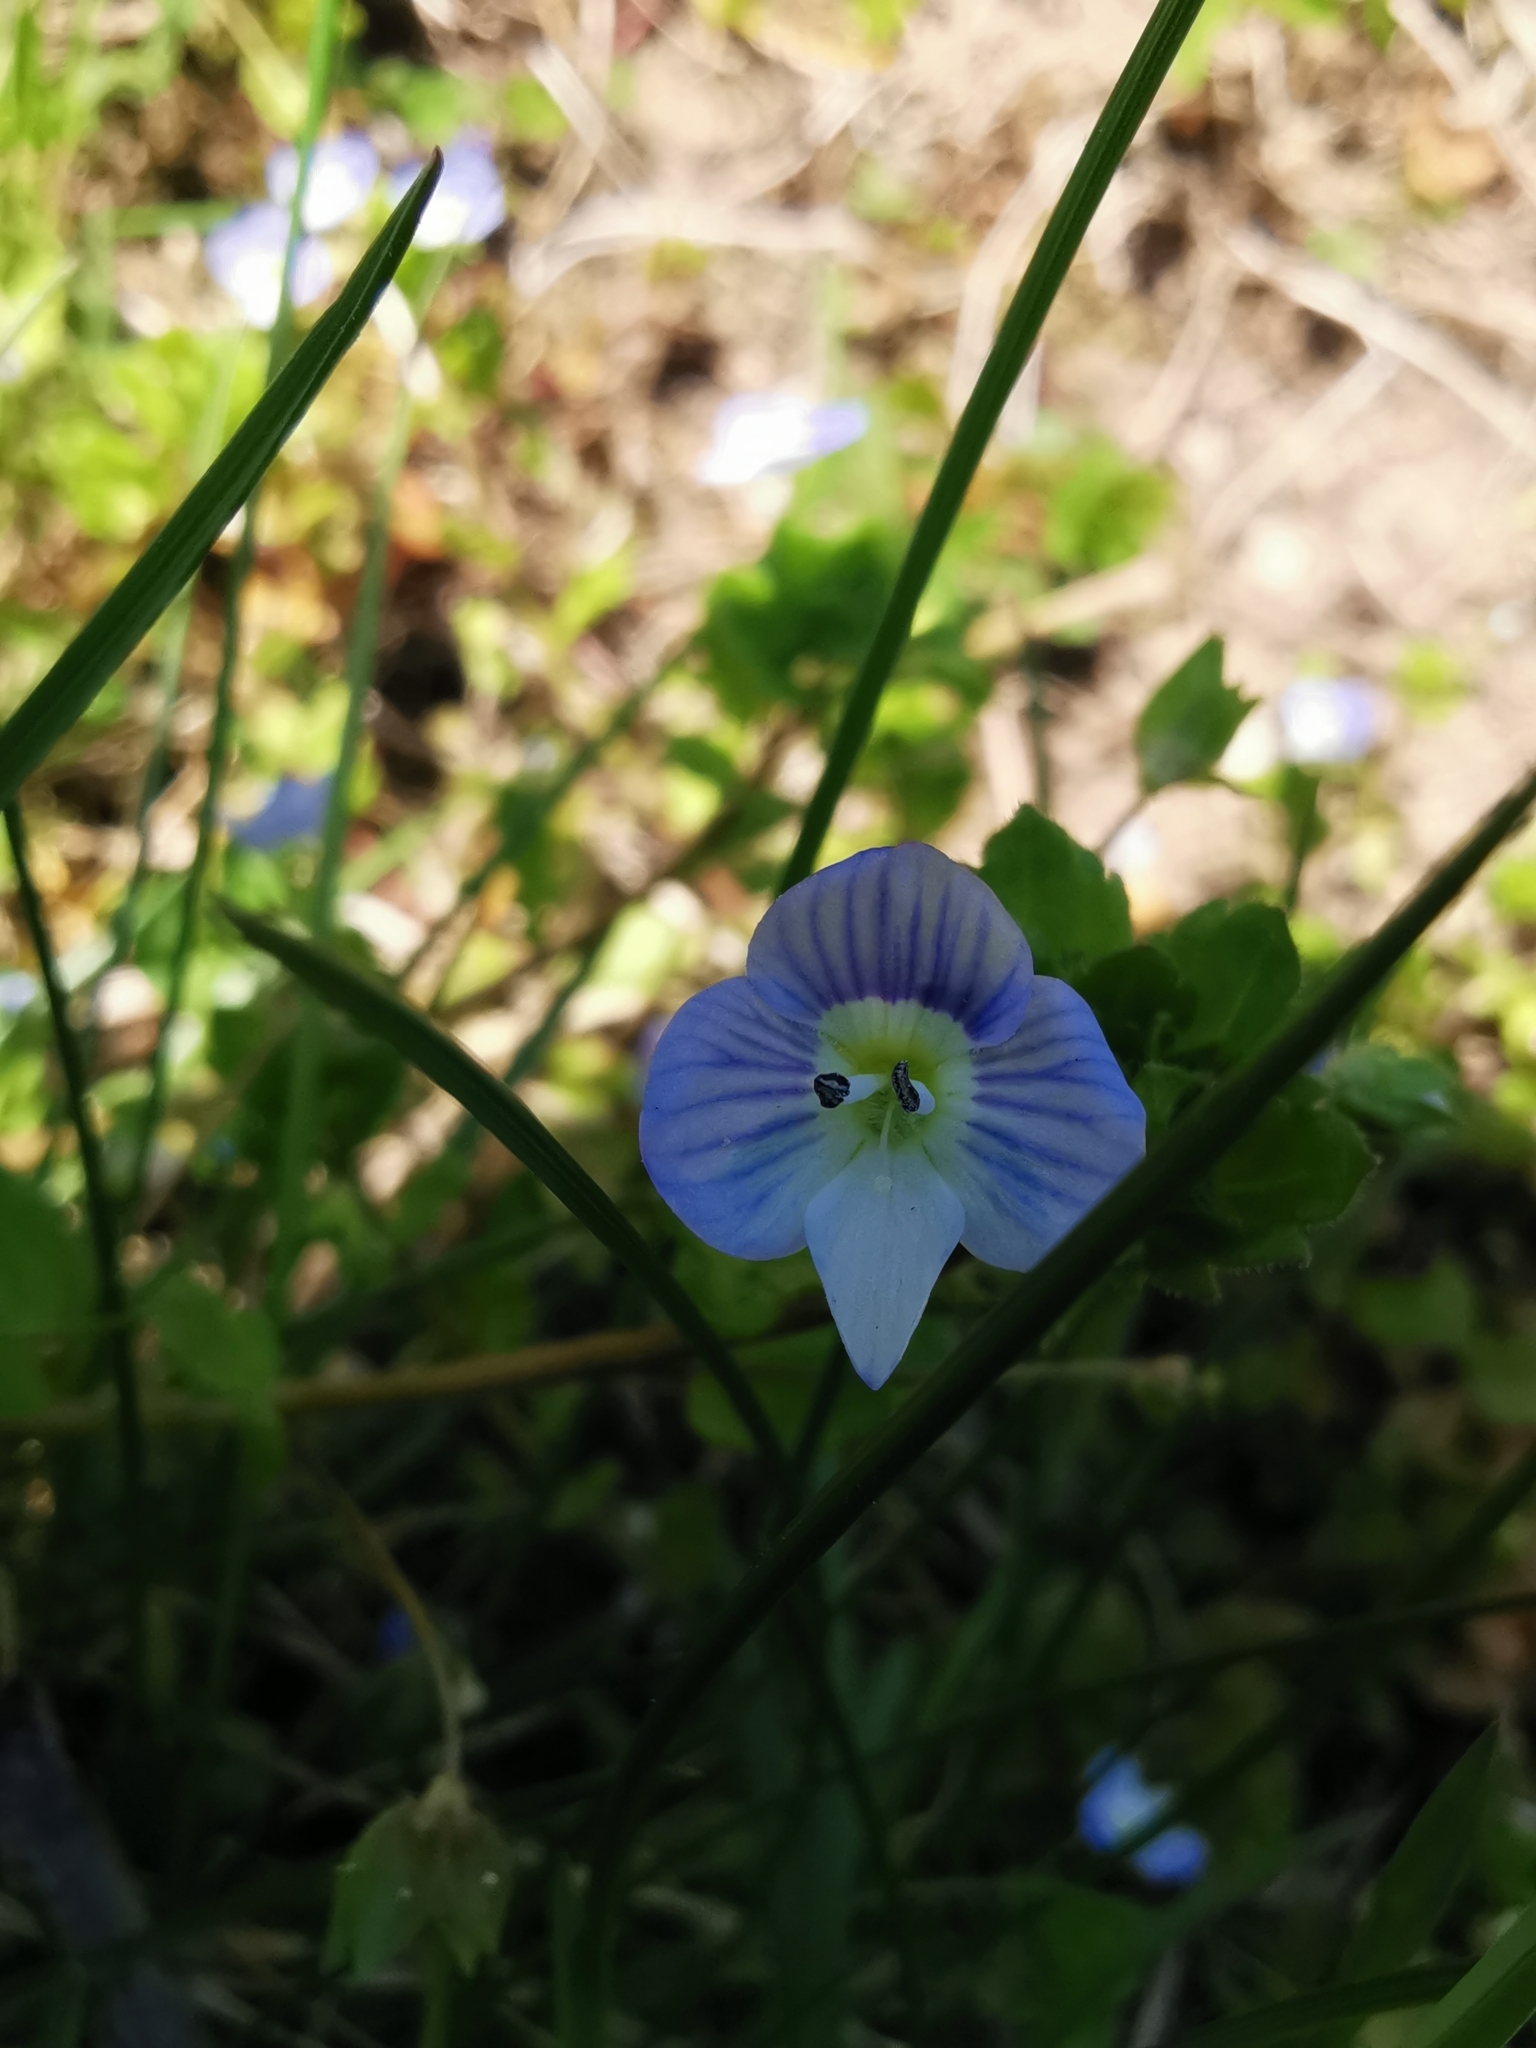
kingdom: Plantae
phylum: Tracheophyta
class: Magnoliopsida
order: Lamiales
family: Plantaginaceae
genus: Veronica
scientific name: Veronica persica
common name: Common field-speedwell
